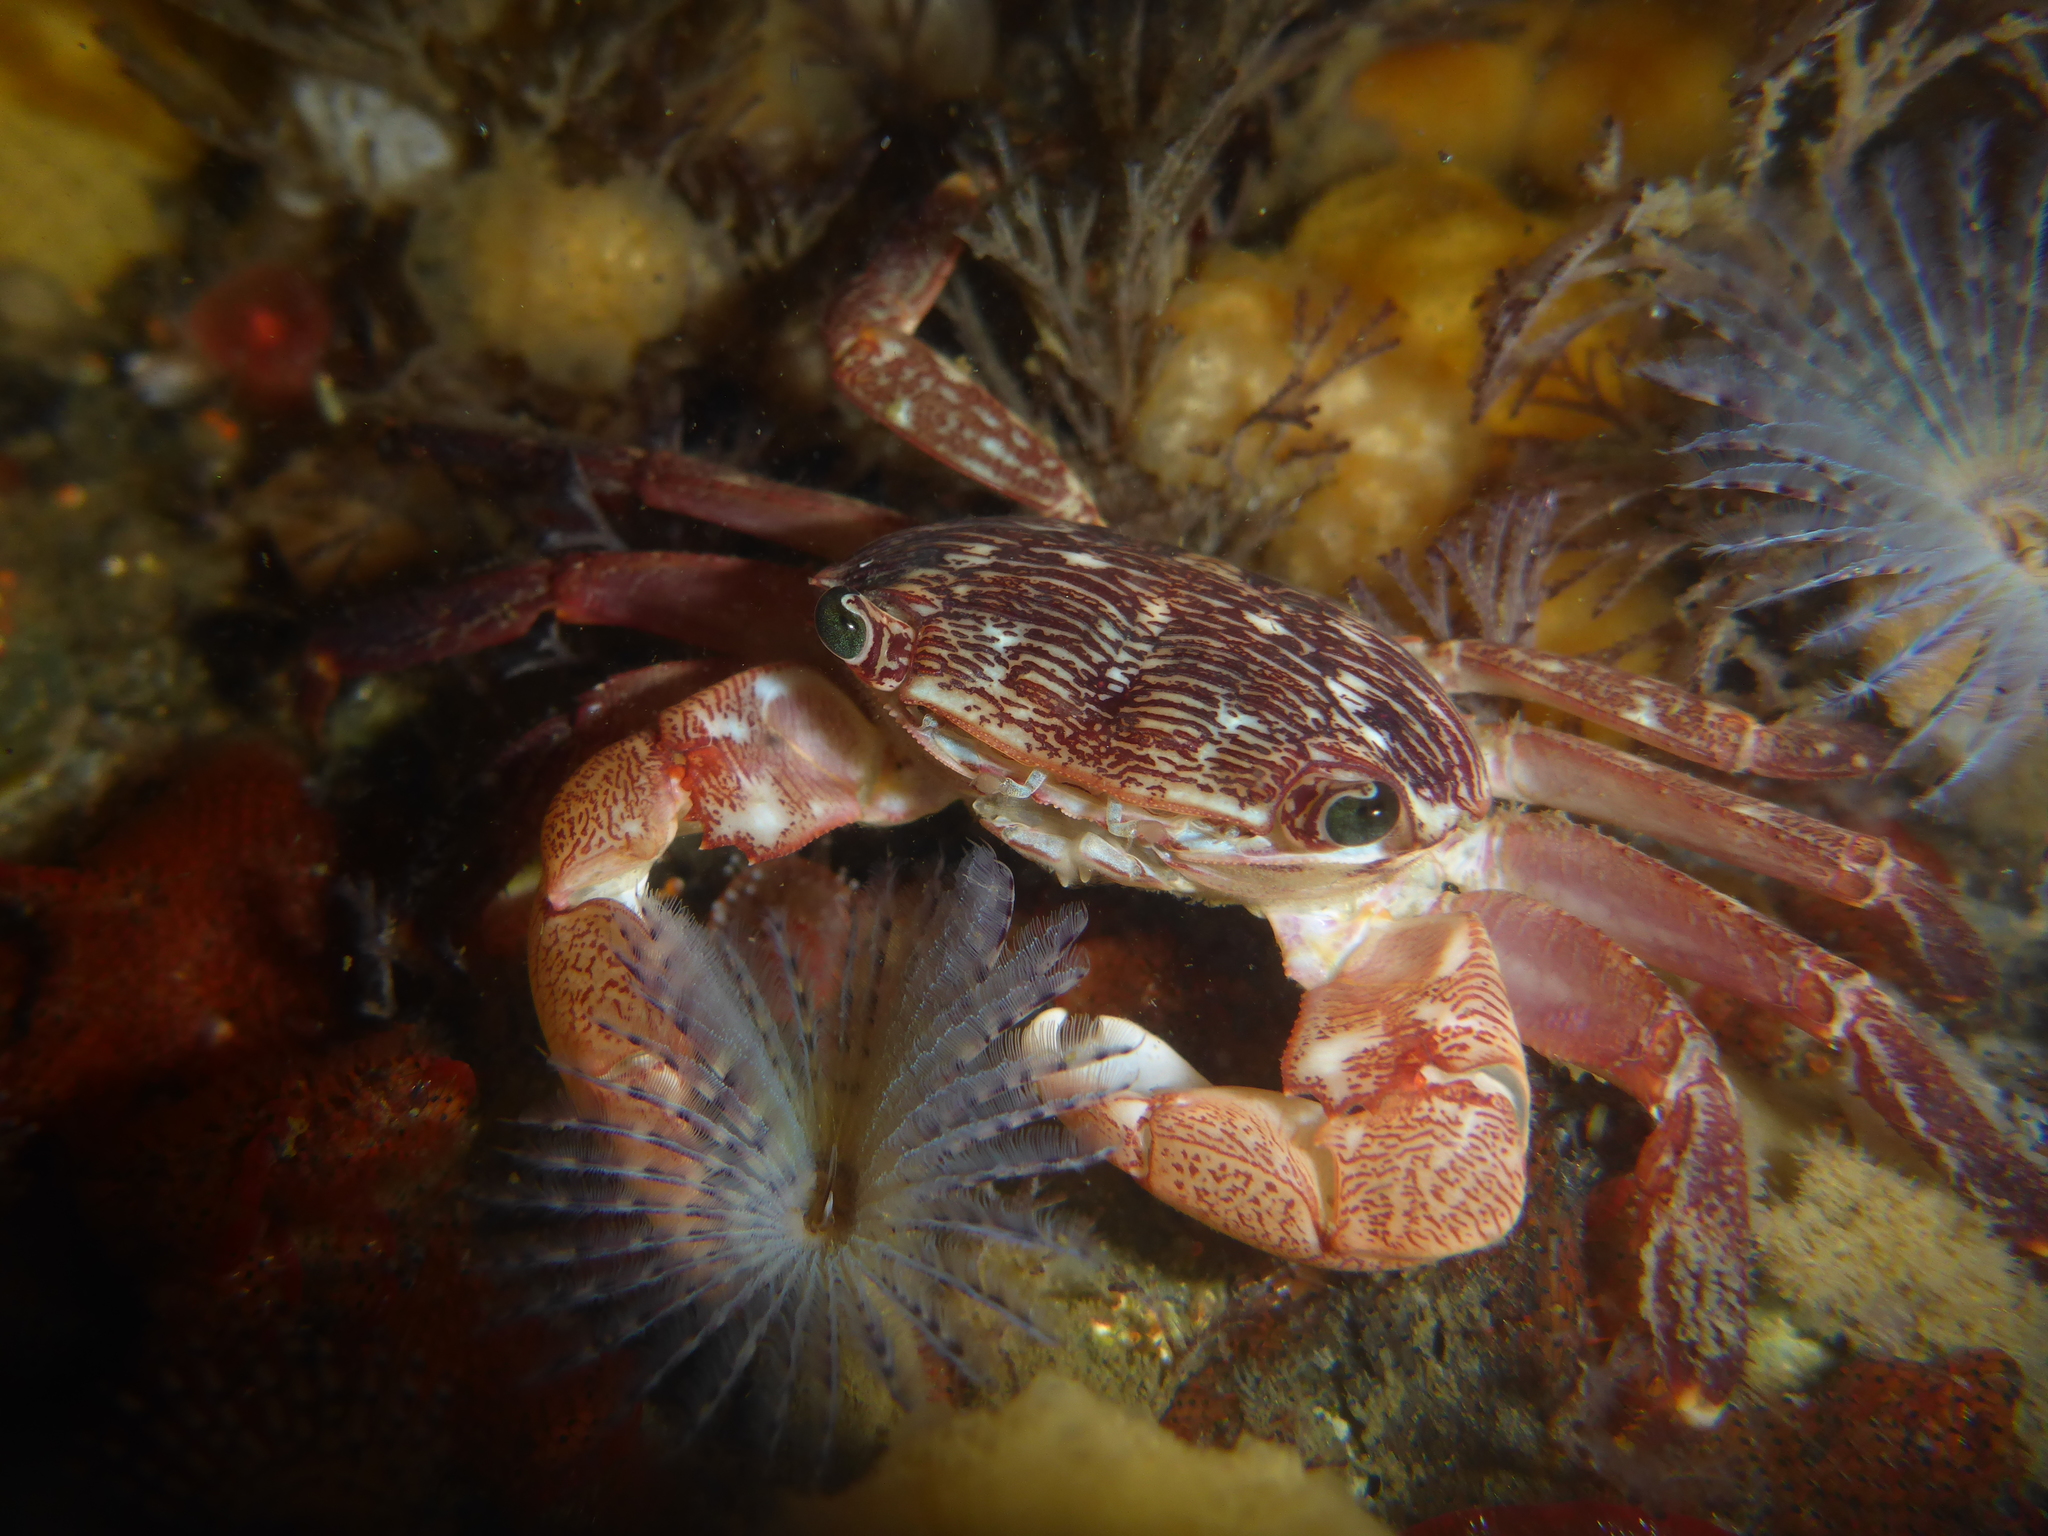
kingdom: Animalia
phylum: Arthropoda
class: Malacostraca
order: Decapoda
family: Grapsidae
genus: Pachygrapsus
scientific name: Pachygrapsus crassipes
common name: Striped shore crab
